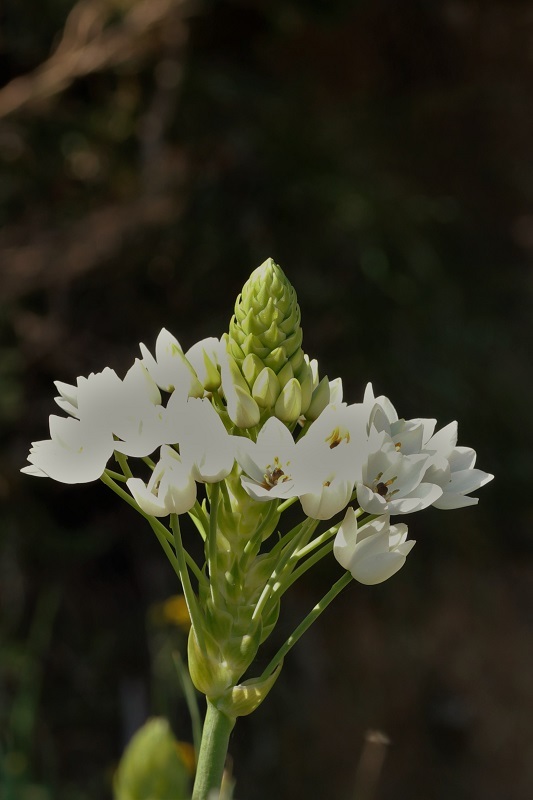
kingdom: Plantae
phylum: Tracheophyta
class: Liliopsida
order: Asparagales
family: Asparagaceae
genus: Ornithogalum
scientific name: Ornithogalum thyrsoides
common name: Chincherinchee
